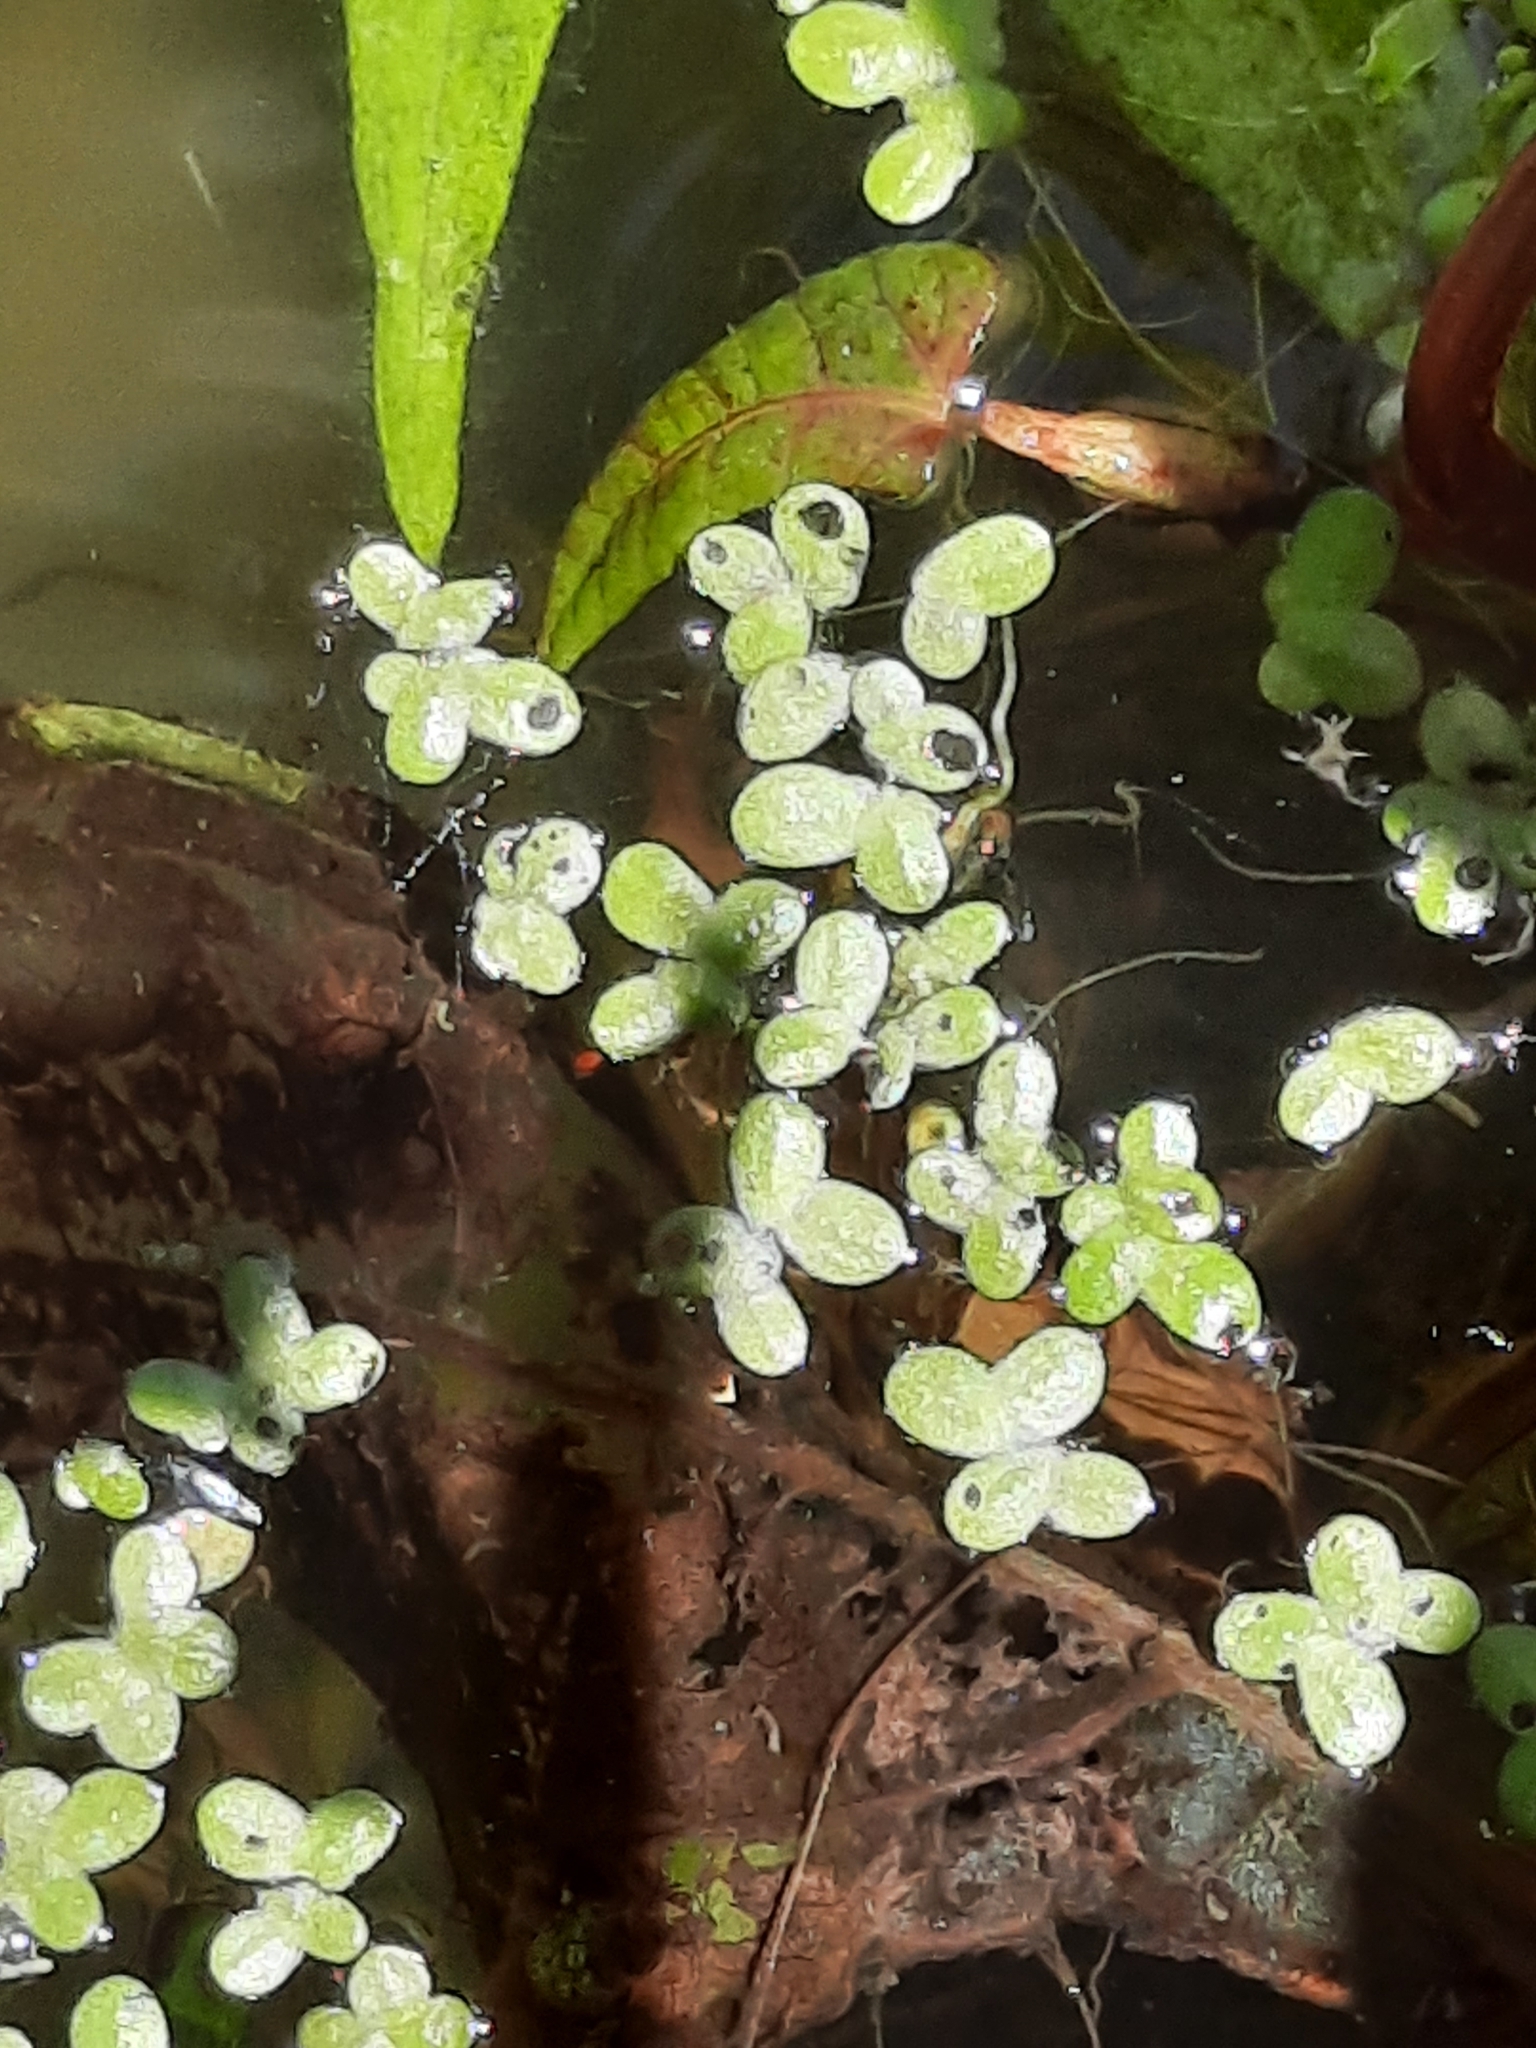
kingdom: Plantae
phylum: Tracheophyta
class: Liliopsida
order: Alismatales
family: Araceae
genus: Lemna
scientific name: Lemna minor
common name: Common duckweed
